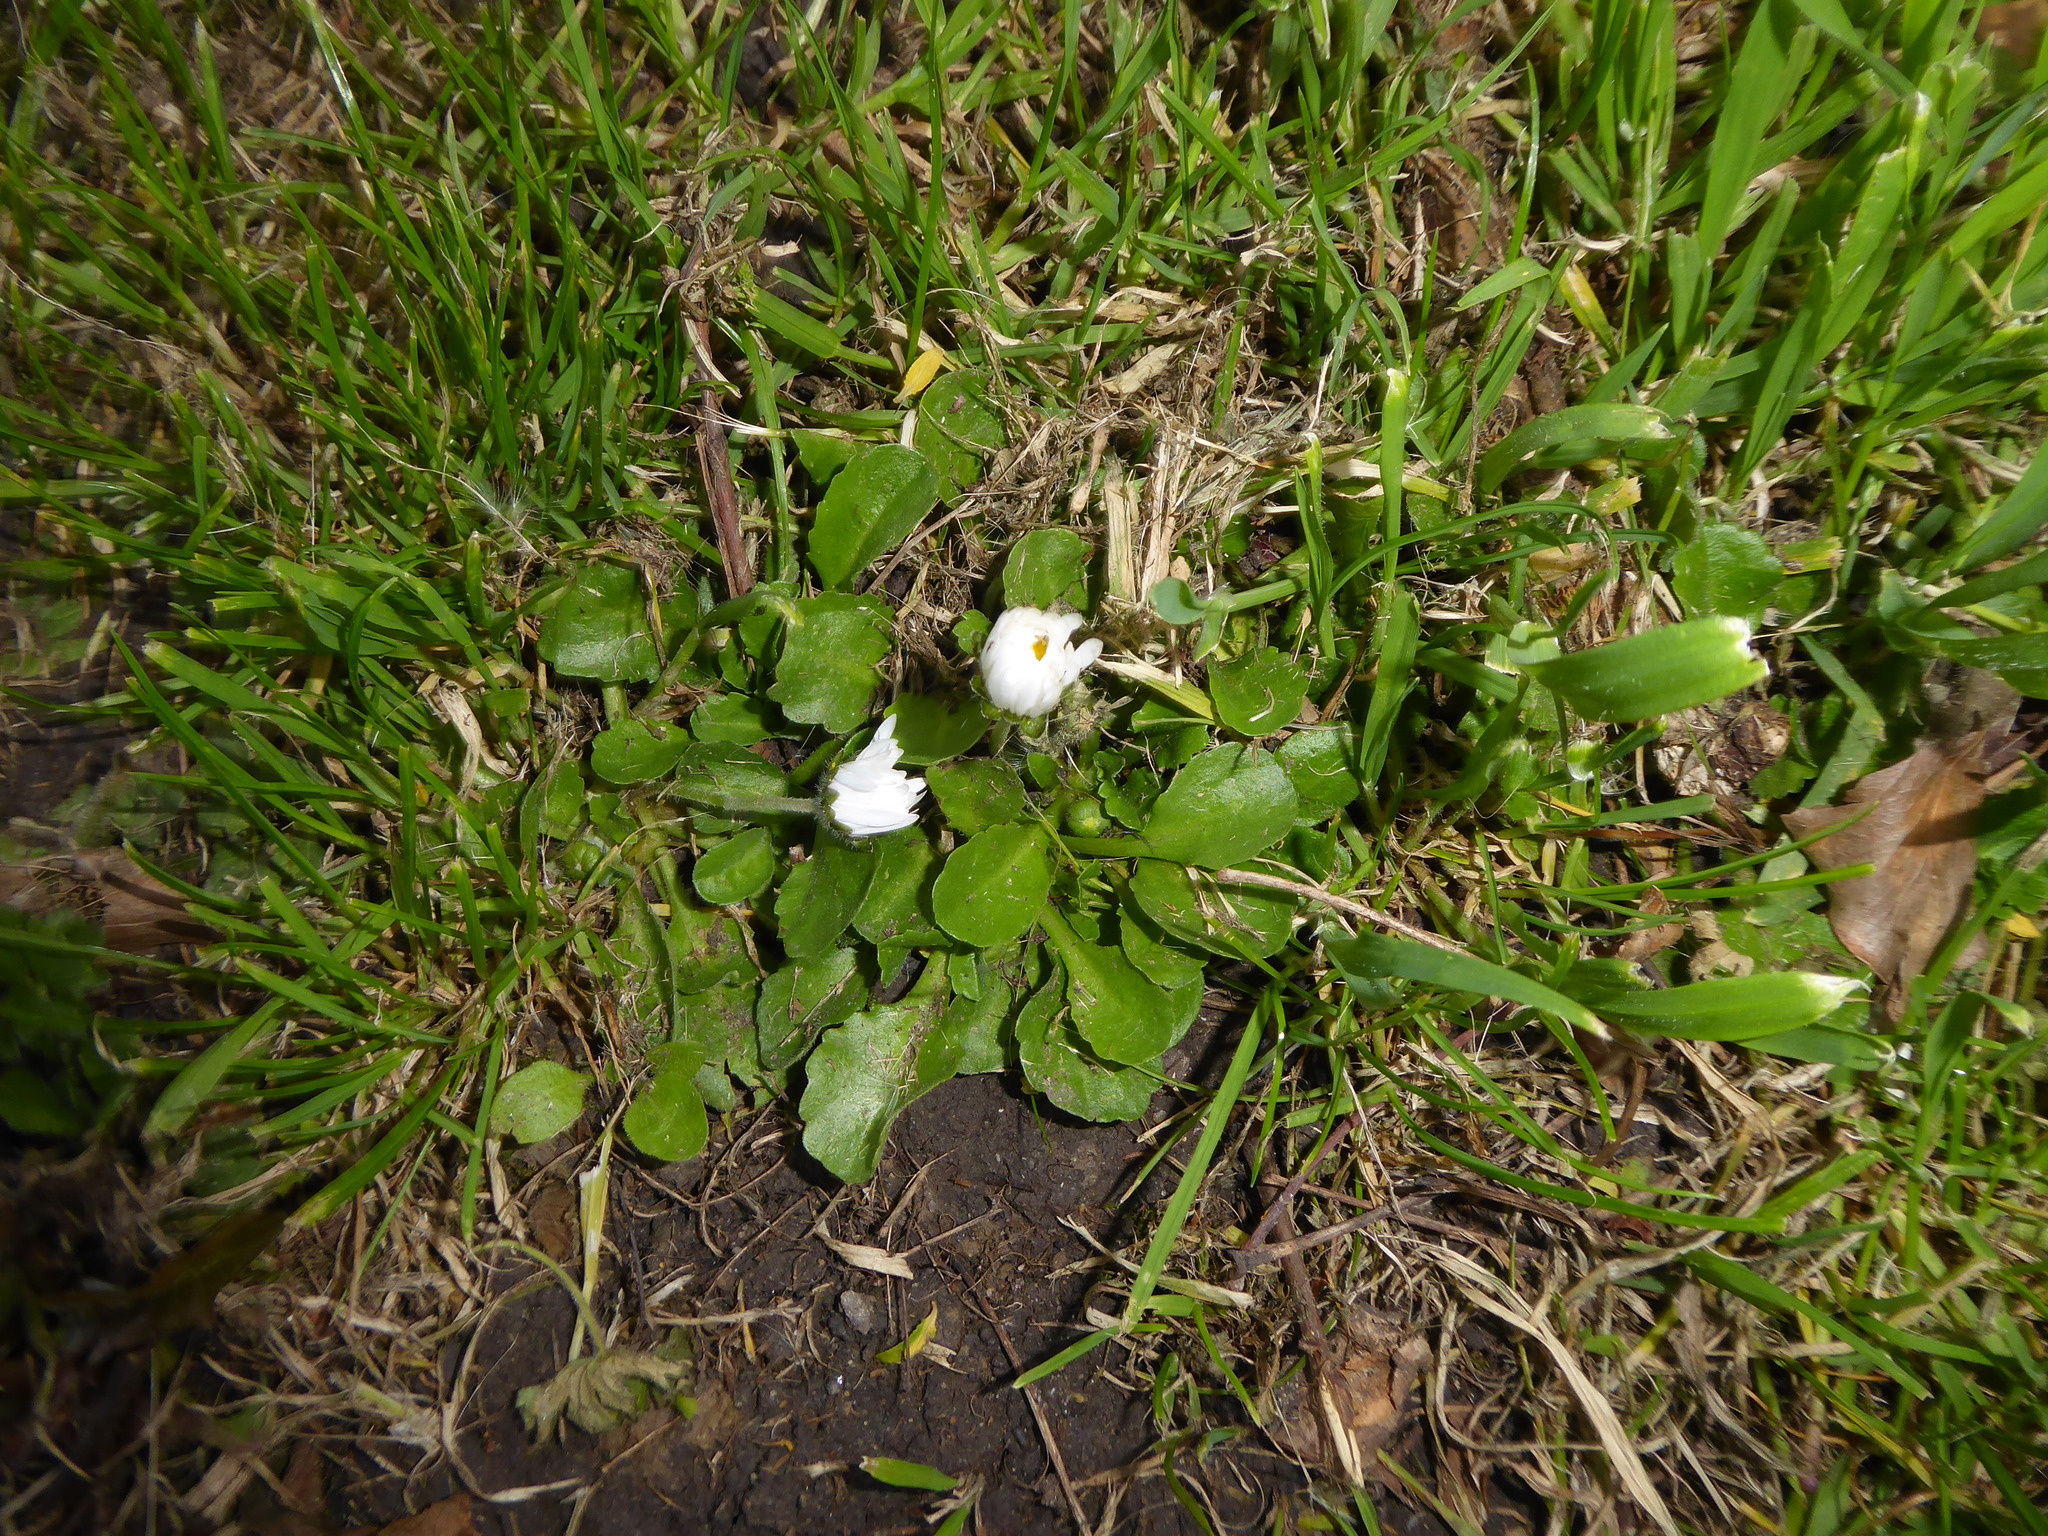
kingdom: Plantae
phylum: Tracheophyta
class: Magnoliopsida
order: Asterales
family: Asteraceae
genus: Bellis
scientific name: Bellis perennis
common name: Lawndaisy
